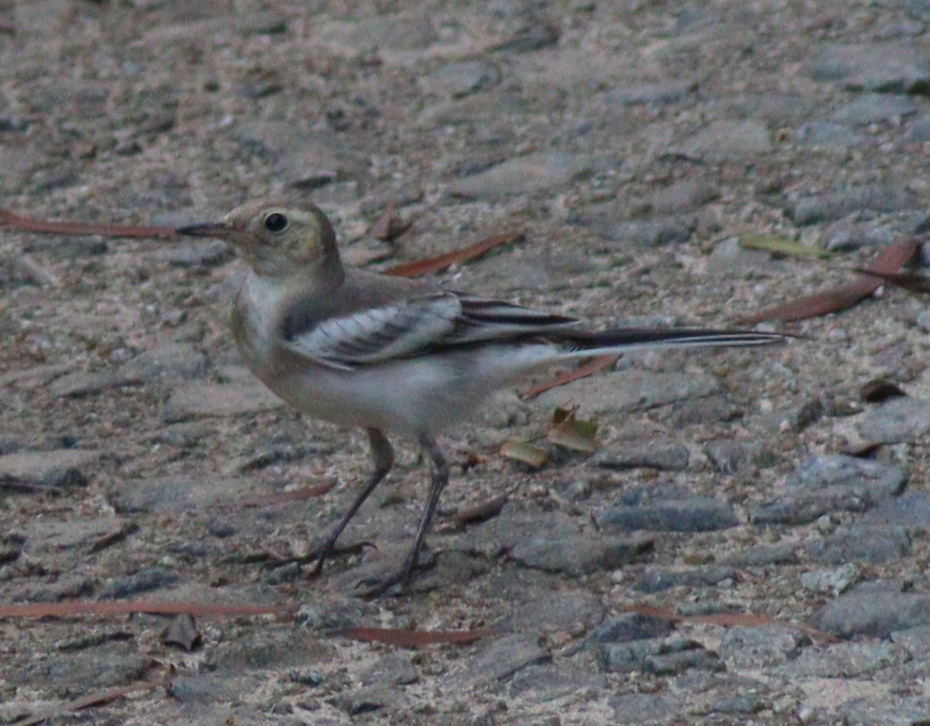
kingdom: Animalia
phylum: Chordata
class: Aves
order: Passeriformes
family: Motacillidae
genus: Motacilla
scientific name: Motacilla alba
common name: White wagtail
